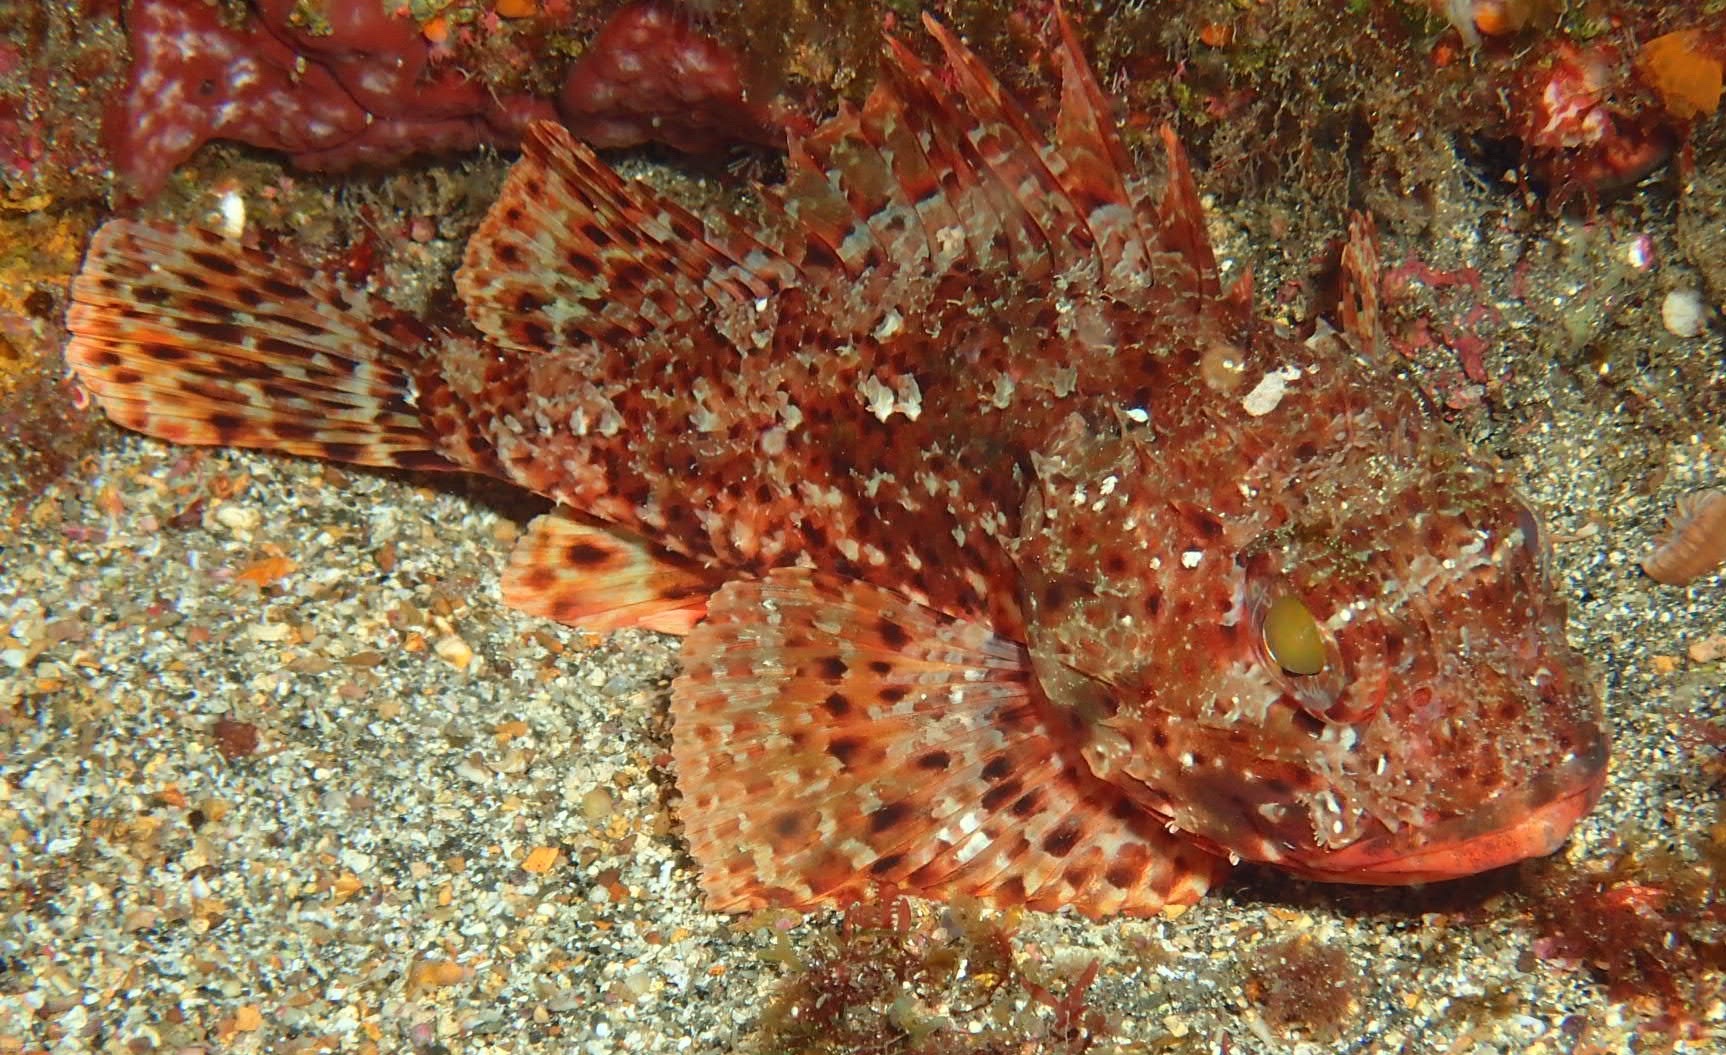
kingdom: Animalia
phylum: Chordata
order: Scorpaeniformes
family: Scorpaenidae
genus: Scorpaena
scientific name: Scorpaena notata
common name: Small red scorpionfish
